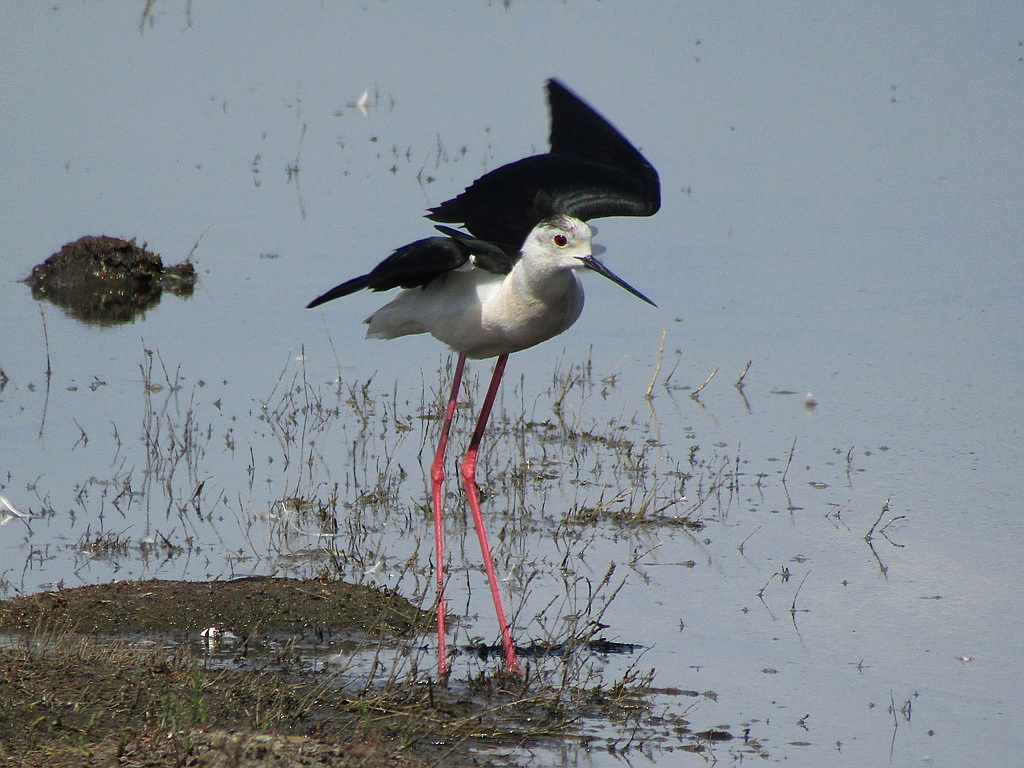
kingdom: Animalia
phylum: Chordata
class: Aves
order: Charadriiformes
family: Recurvirostridae
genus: Himantopus
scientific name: Himantopus himantopus
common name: Black-winged stilt
